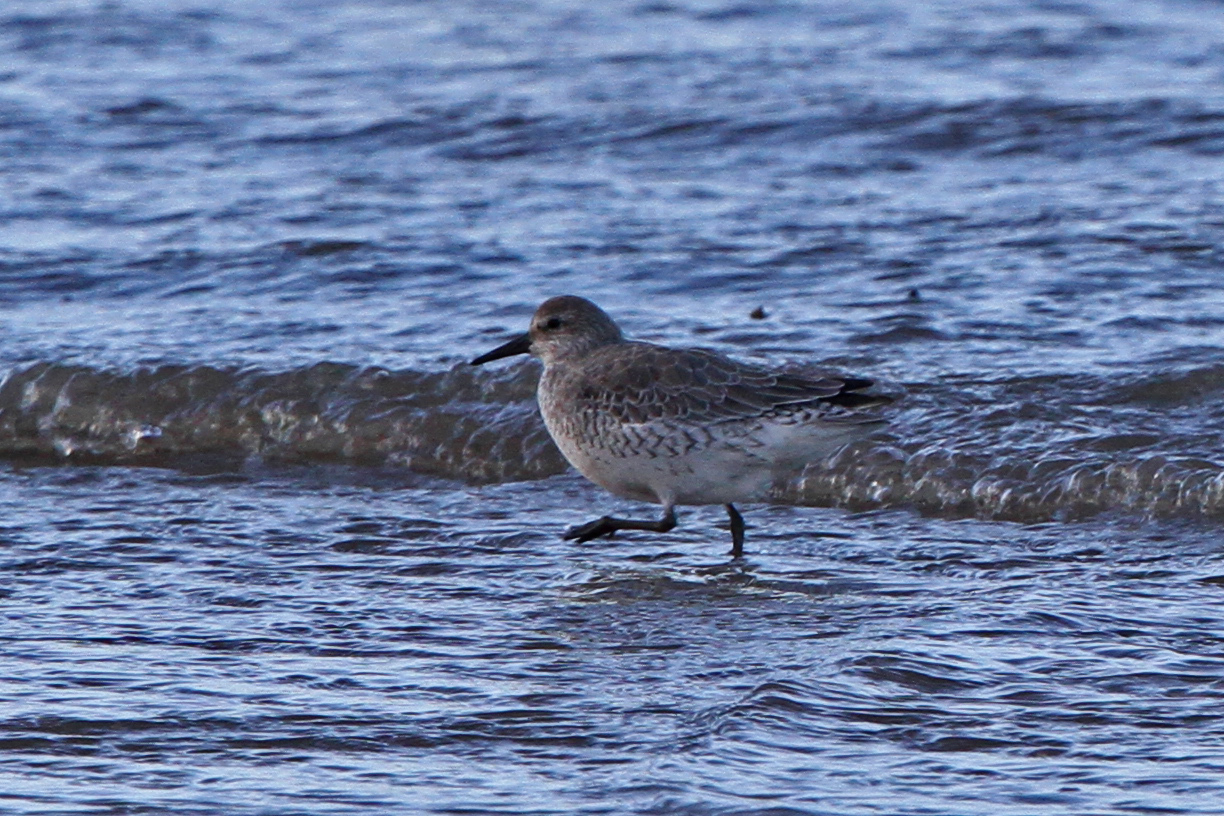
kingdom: Animalia
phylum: Chordata
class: Aves
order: Charadriiformes
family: Scolopacidae
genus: Calidris
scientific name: Calidris canutus
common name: Red knot
